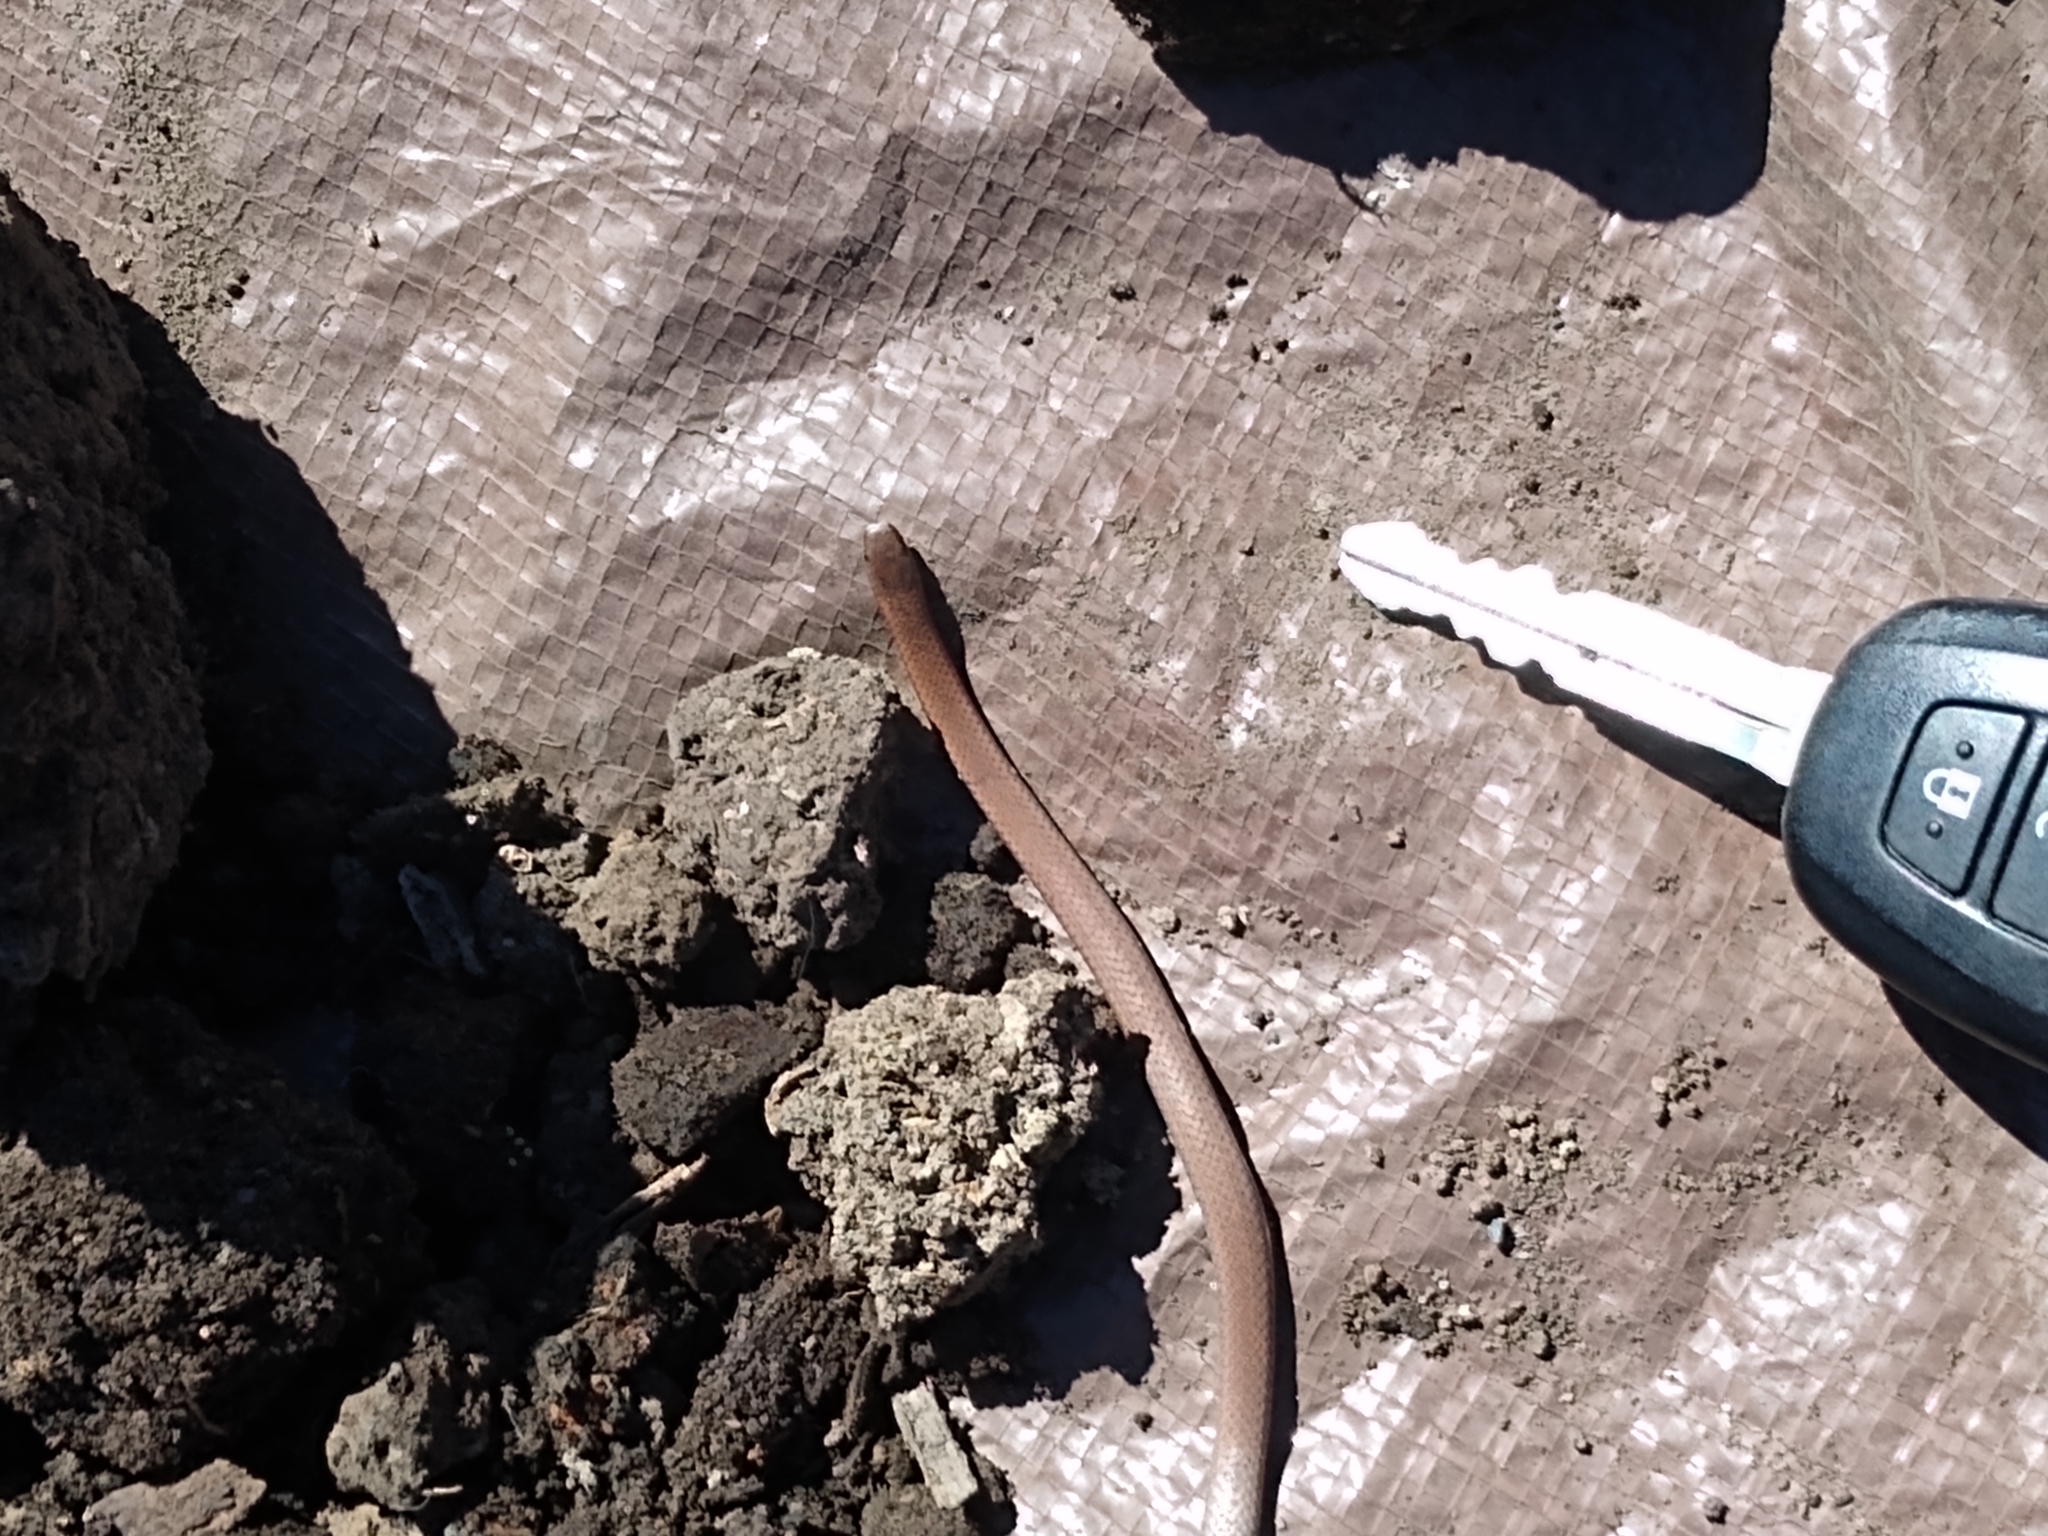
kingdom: Animalia
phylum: Chordata
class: Squamata
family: Colubridae
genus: Contia
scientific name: Contia tenuis
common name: Sharptail snake
